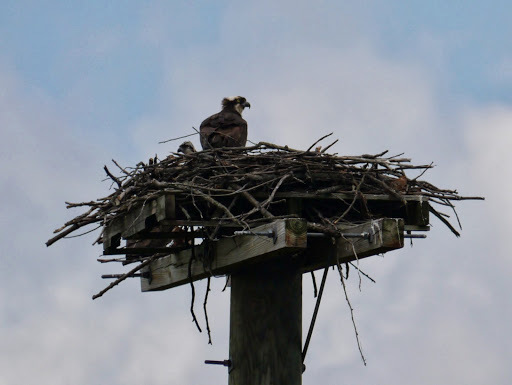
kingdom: Animalia
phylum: Chordata
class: Aves
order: Accipitriformes
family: Pandionidae
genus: Pandion
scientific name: Pandion haliaetus
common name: Osprey
